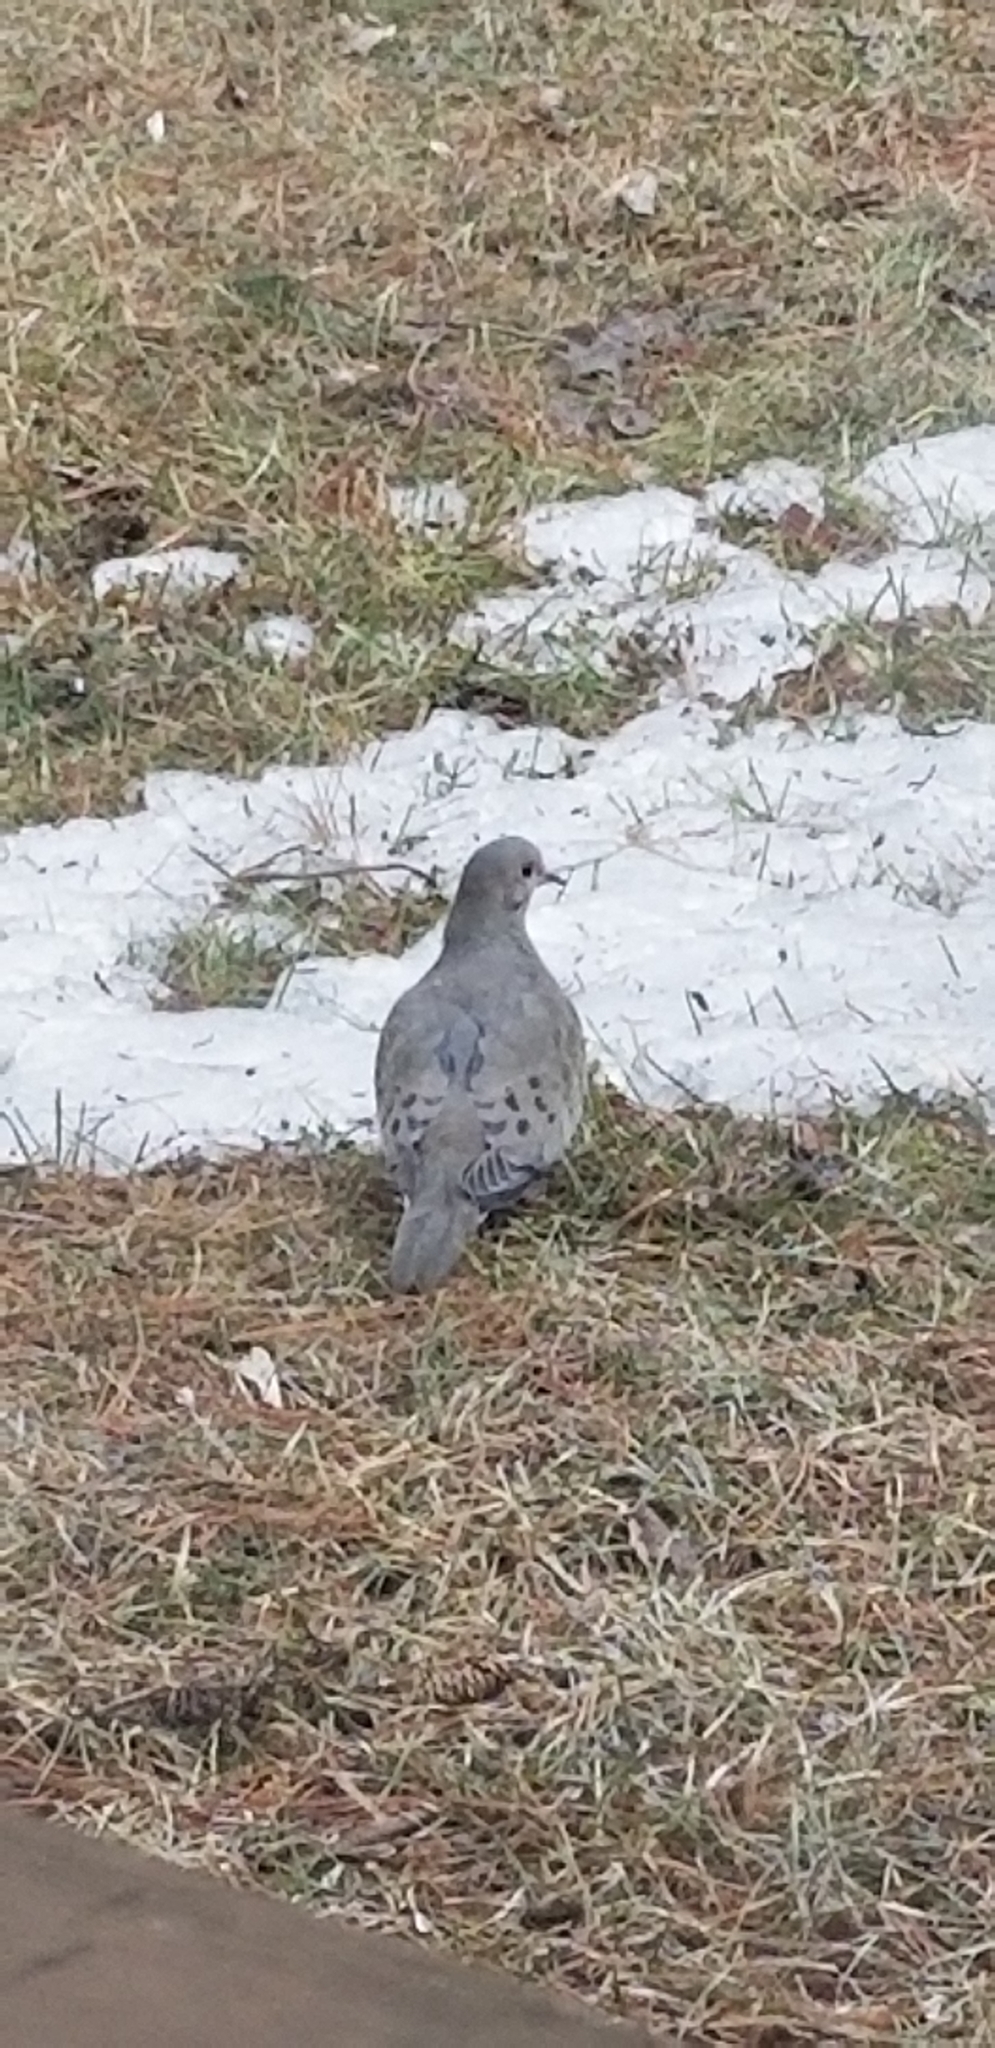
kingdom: Animalia
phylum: Chordata
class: Aves
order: Columbiformes
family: Columbidae
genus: Zenaida
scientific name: Zenaida macroura
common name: Mourning dove
